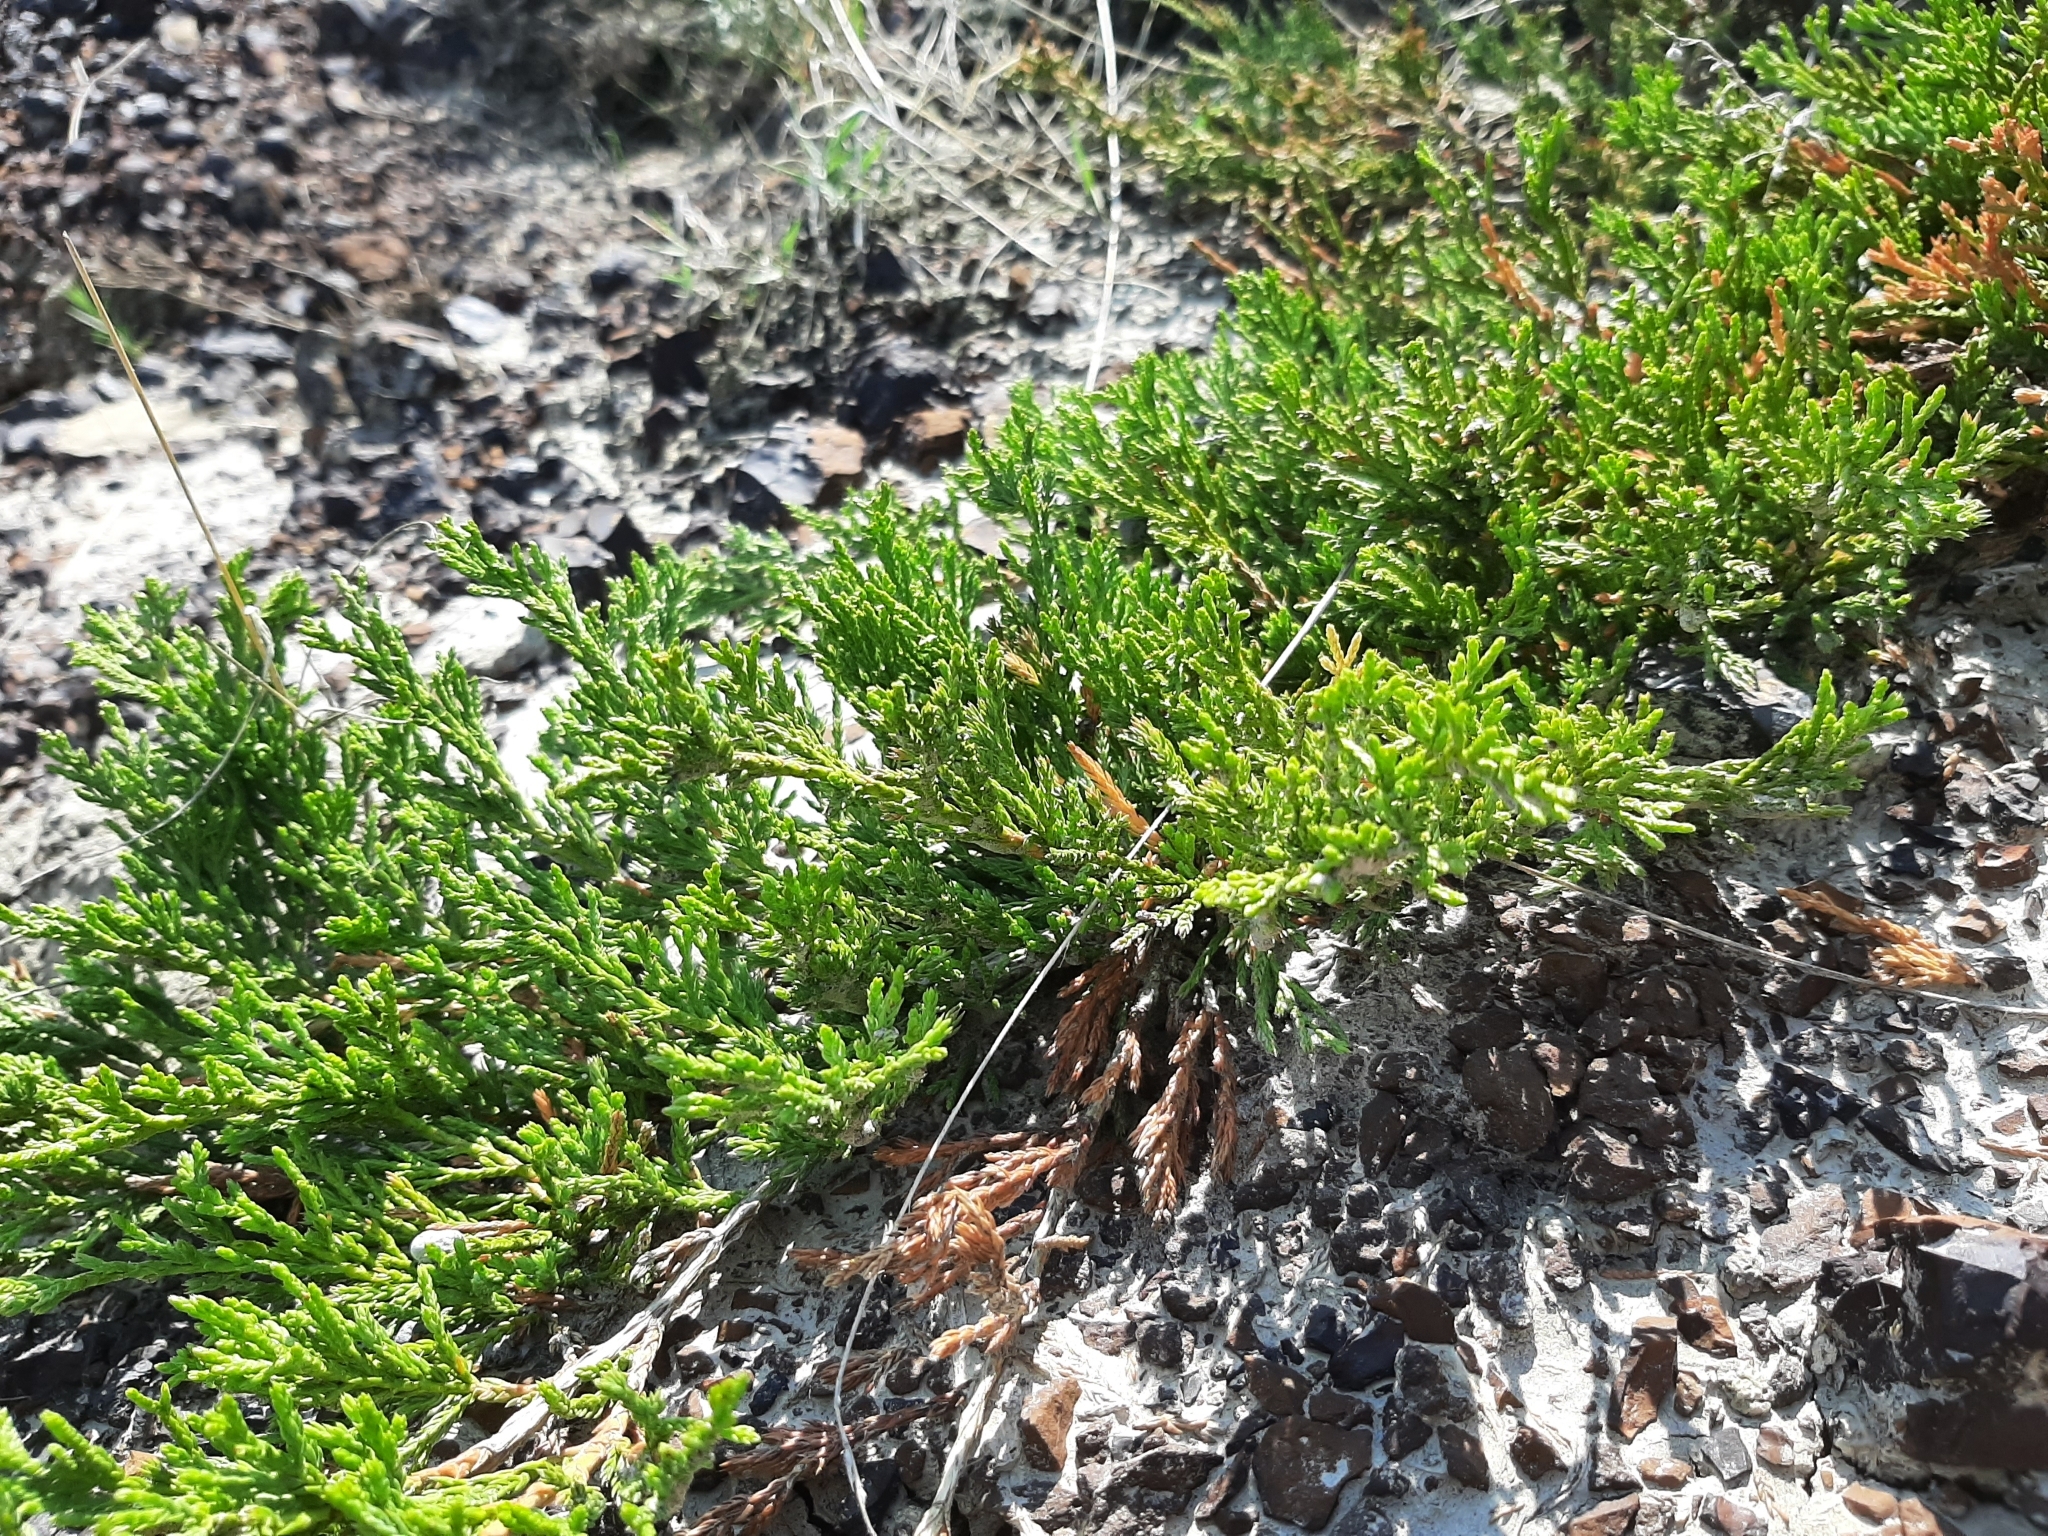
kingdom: Plantae
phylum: Tracheophyta
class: Pinopsida
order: Pinales
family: Cupressaceae
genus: Juniperus
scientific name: Juniperus horizontalis
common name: Creeping juniper
